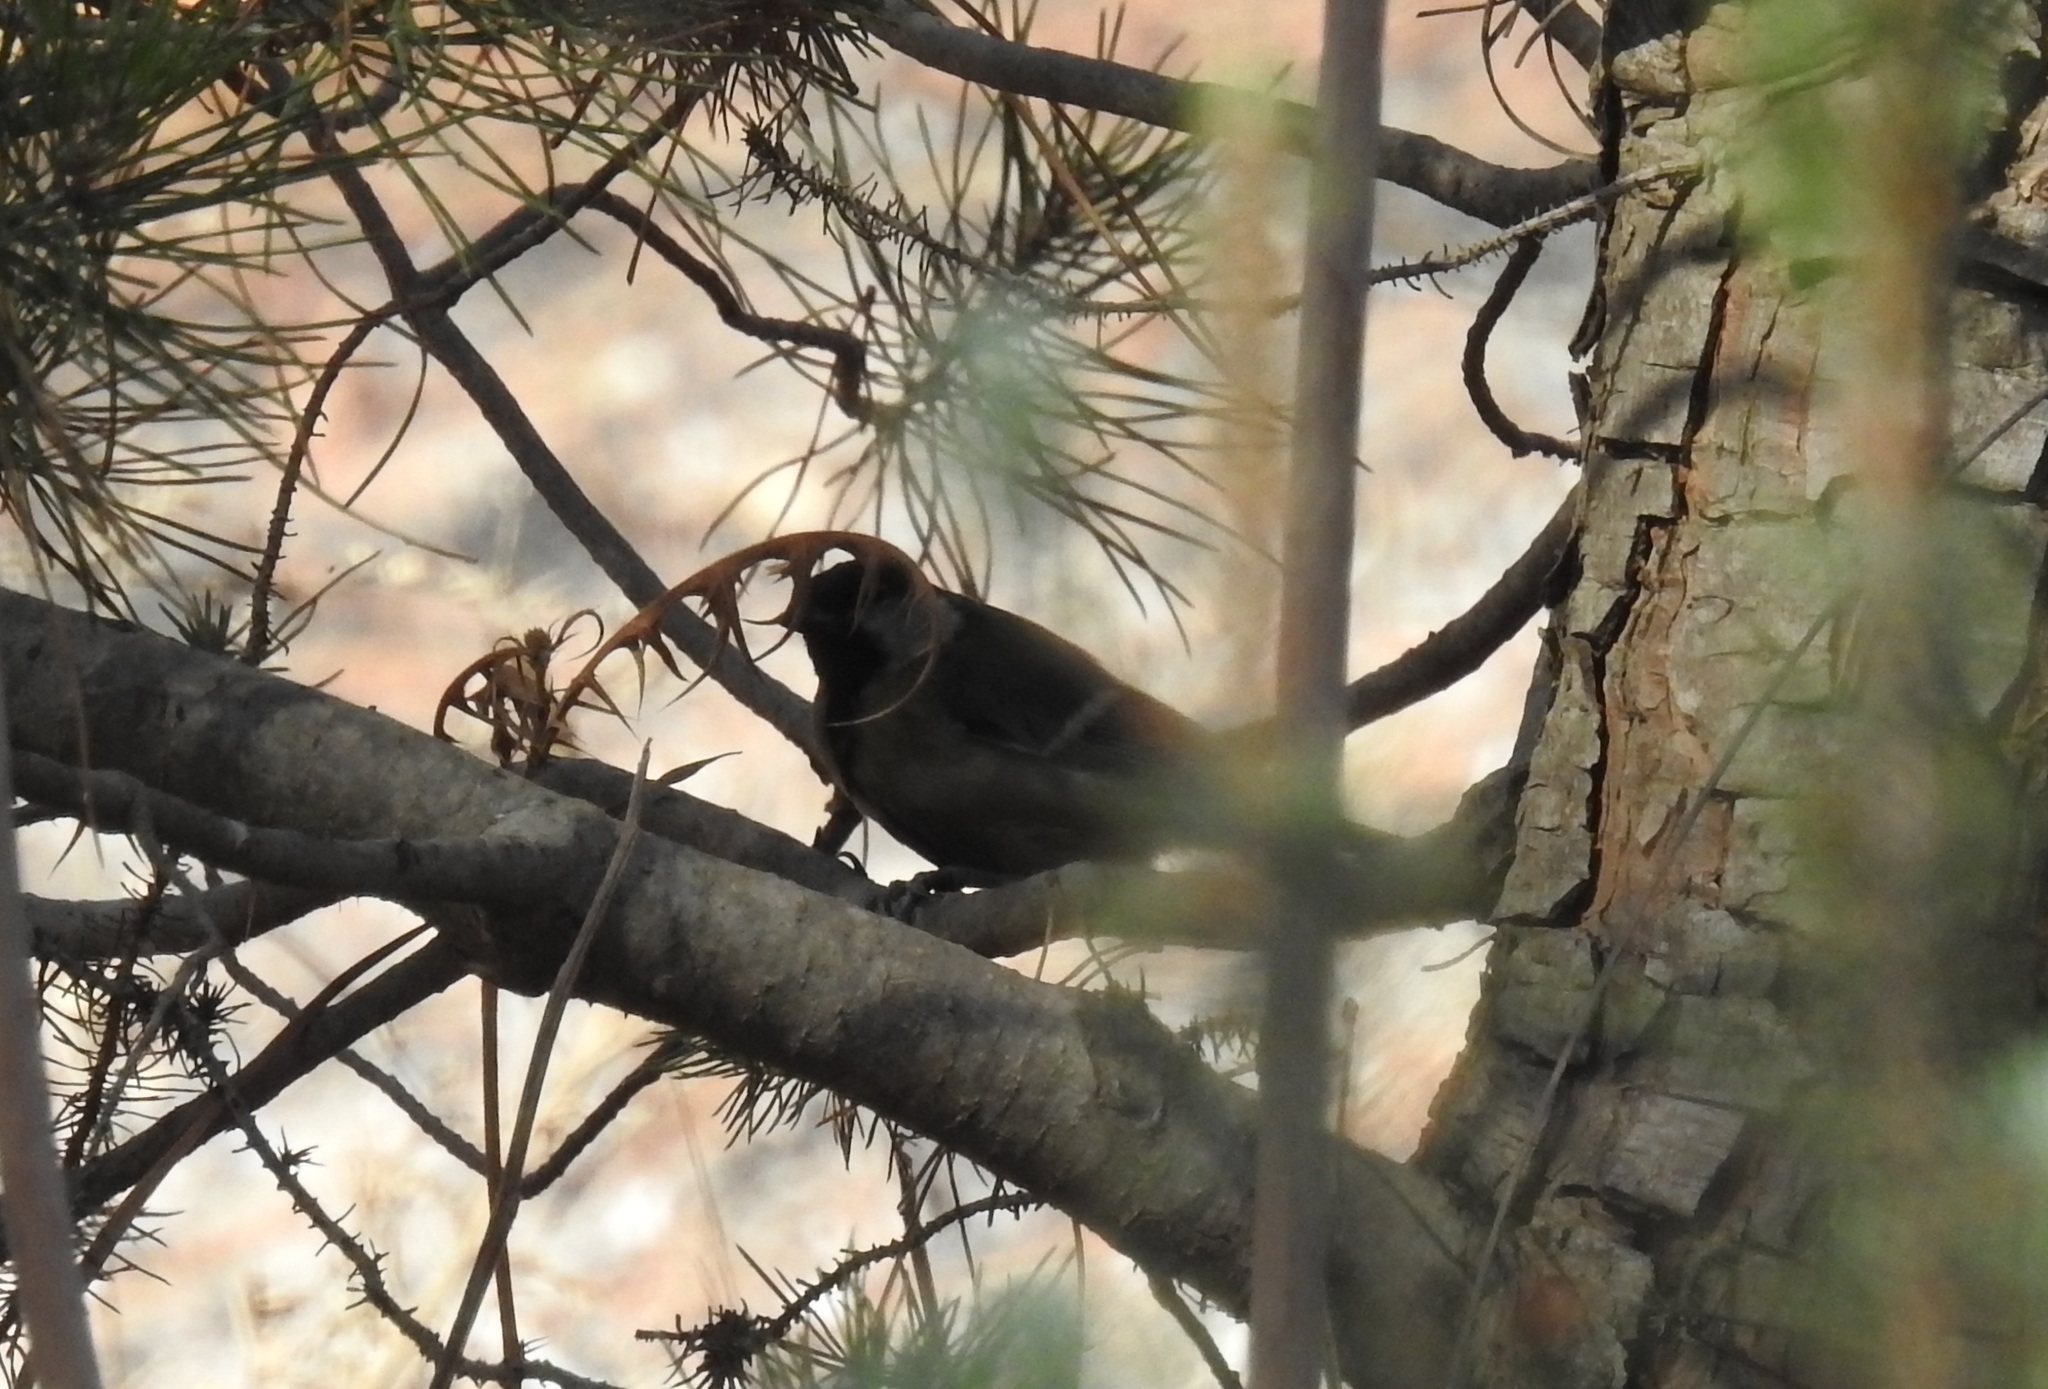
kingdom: Animalia
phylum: Chordata
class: Aves
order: Passeriformes
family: Paridae
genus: Parus
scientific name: Parus major
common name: Great tit
